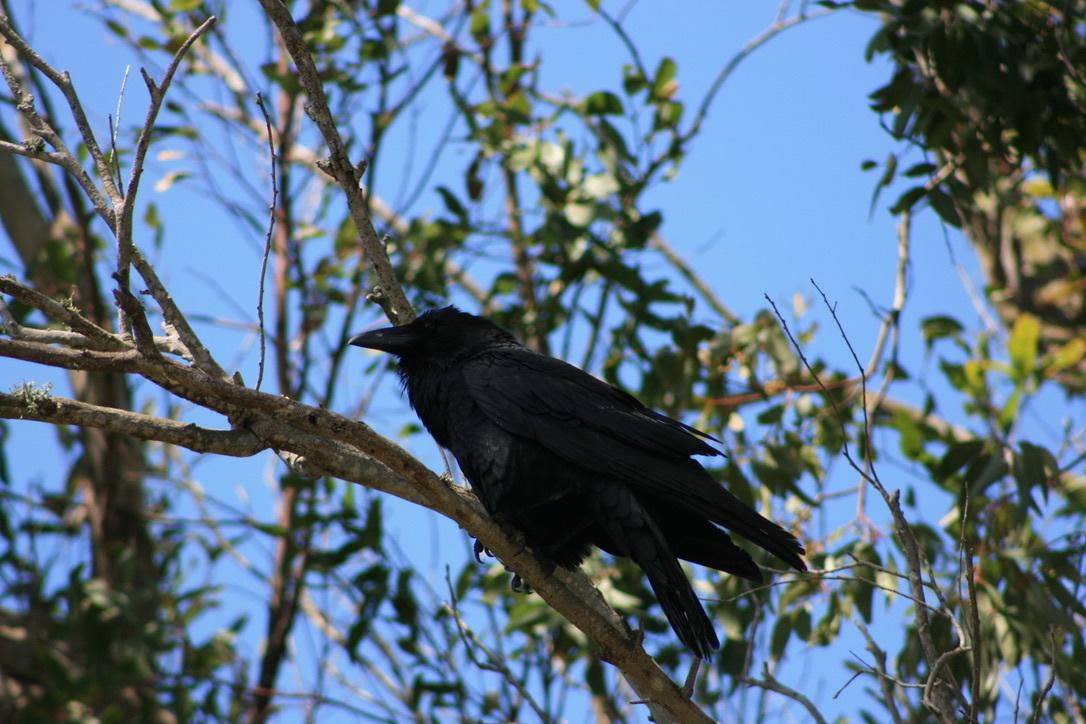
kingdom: Animalia
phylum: Chordata
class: Aves
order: Passeriformes
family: Corvidae
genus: Corvus
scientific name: Corvus corax
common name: Common raven
